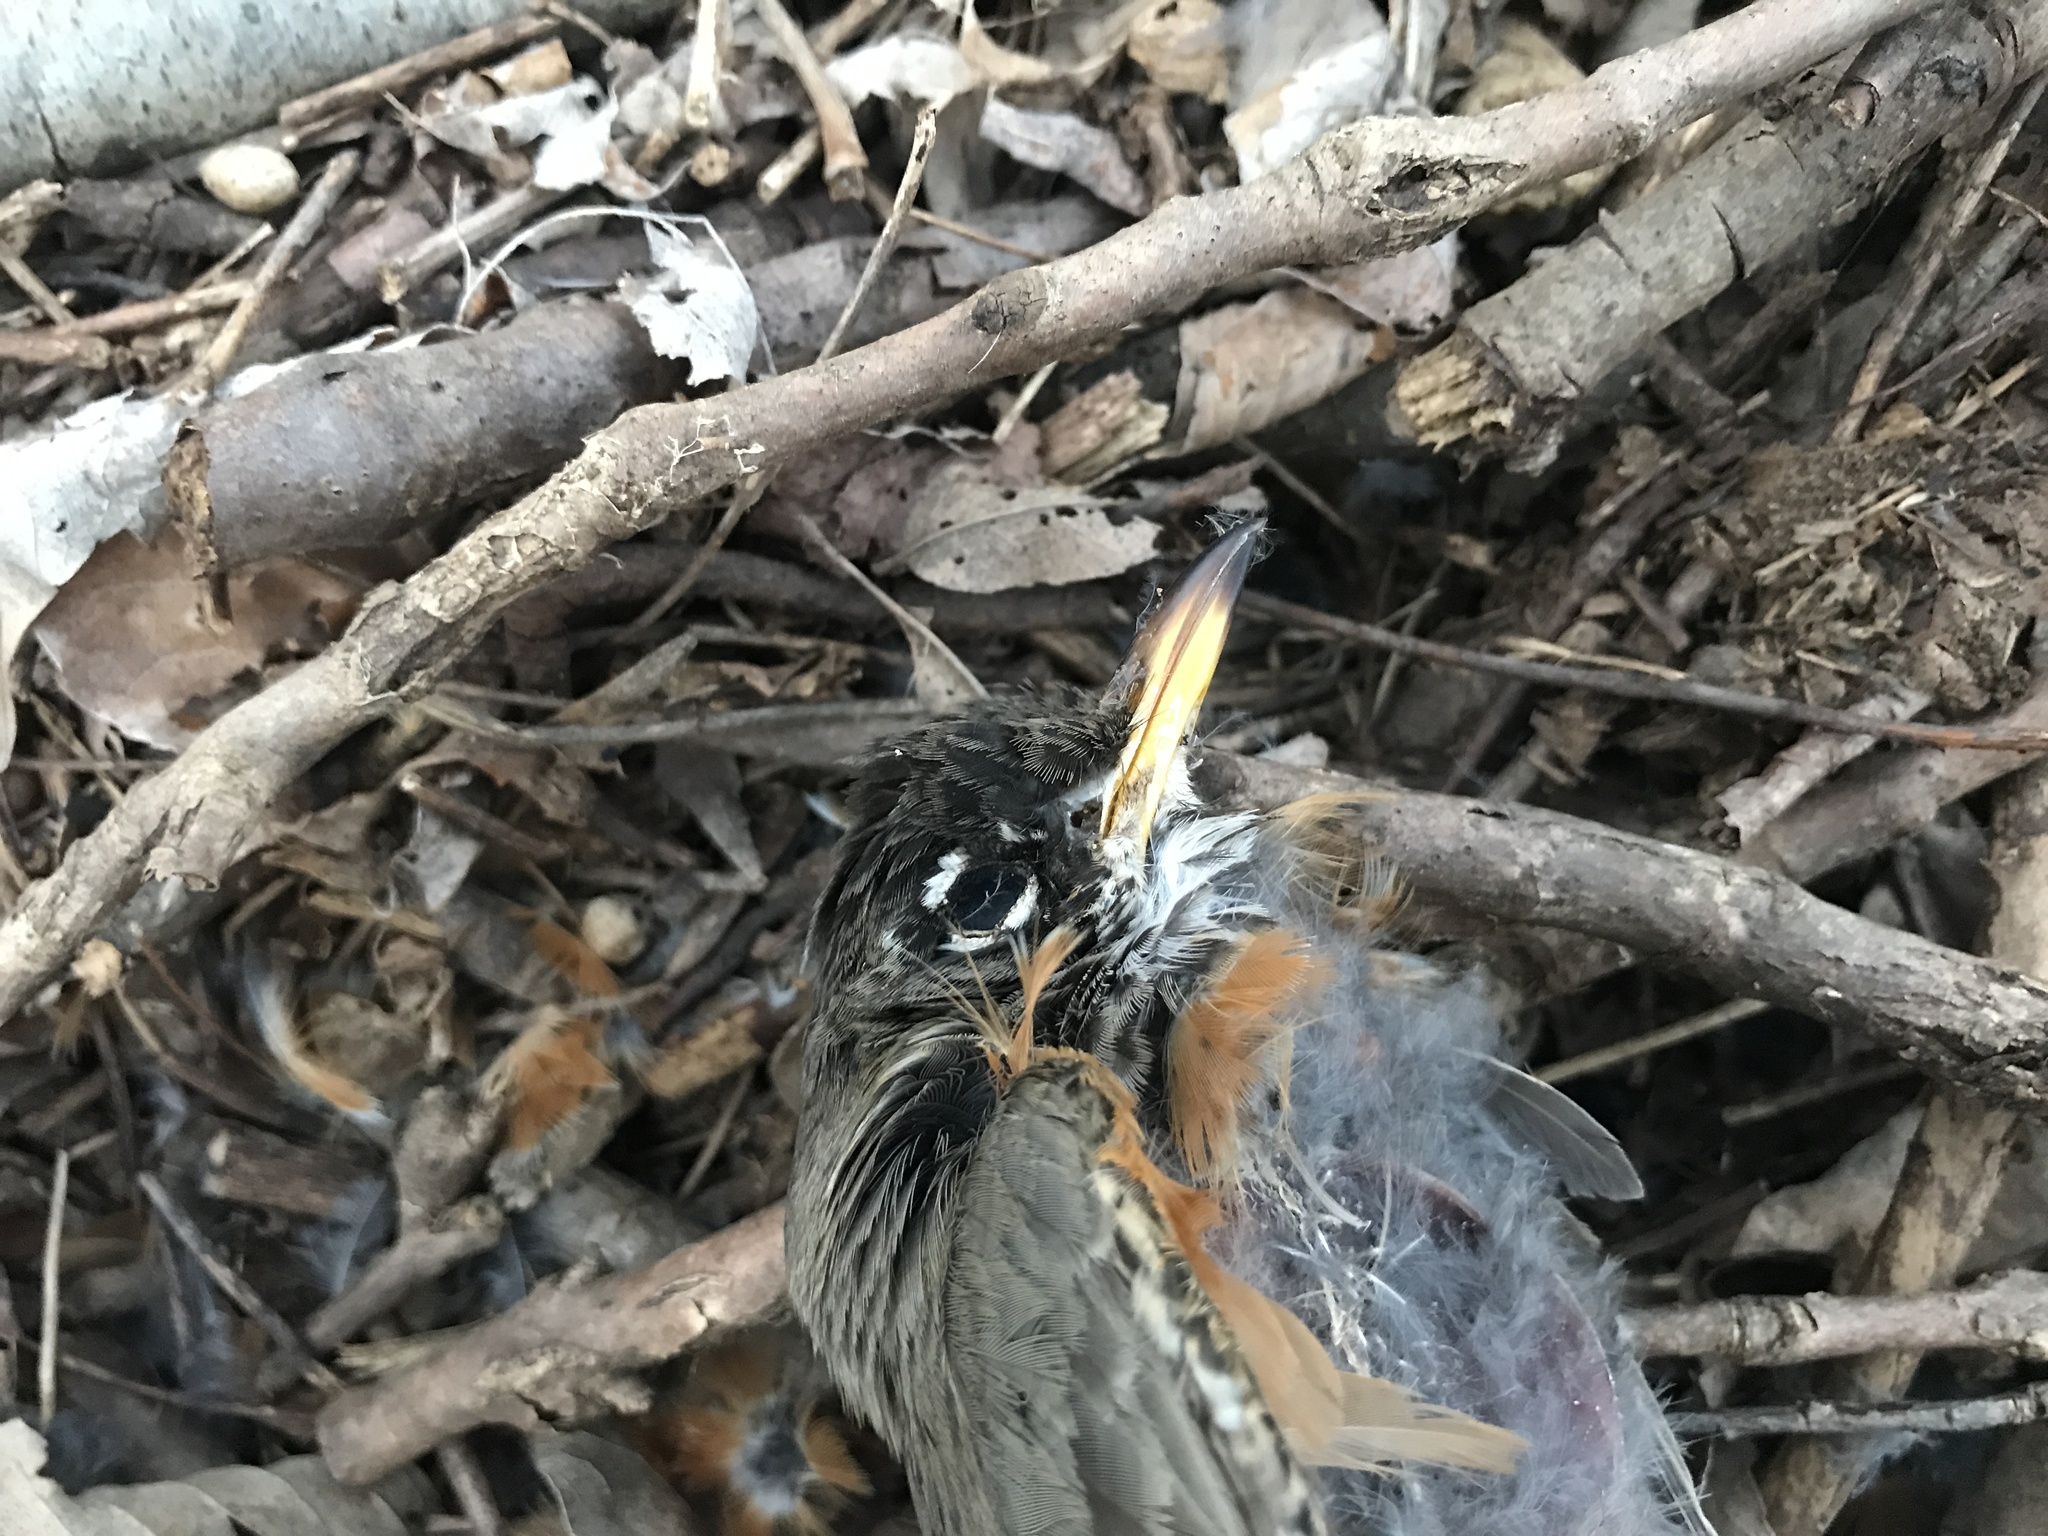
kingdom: Animalia
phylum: Chordata
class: Aves
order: Passeriformes
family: Turdidae
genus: Turdus
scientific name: Turdus migratorius
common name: American robin
